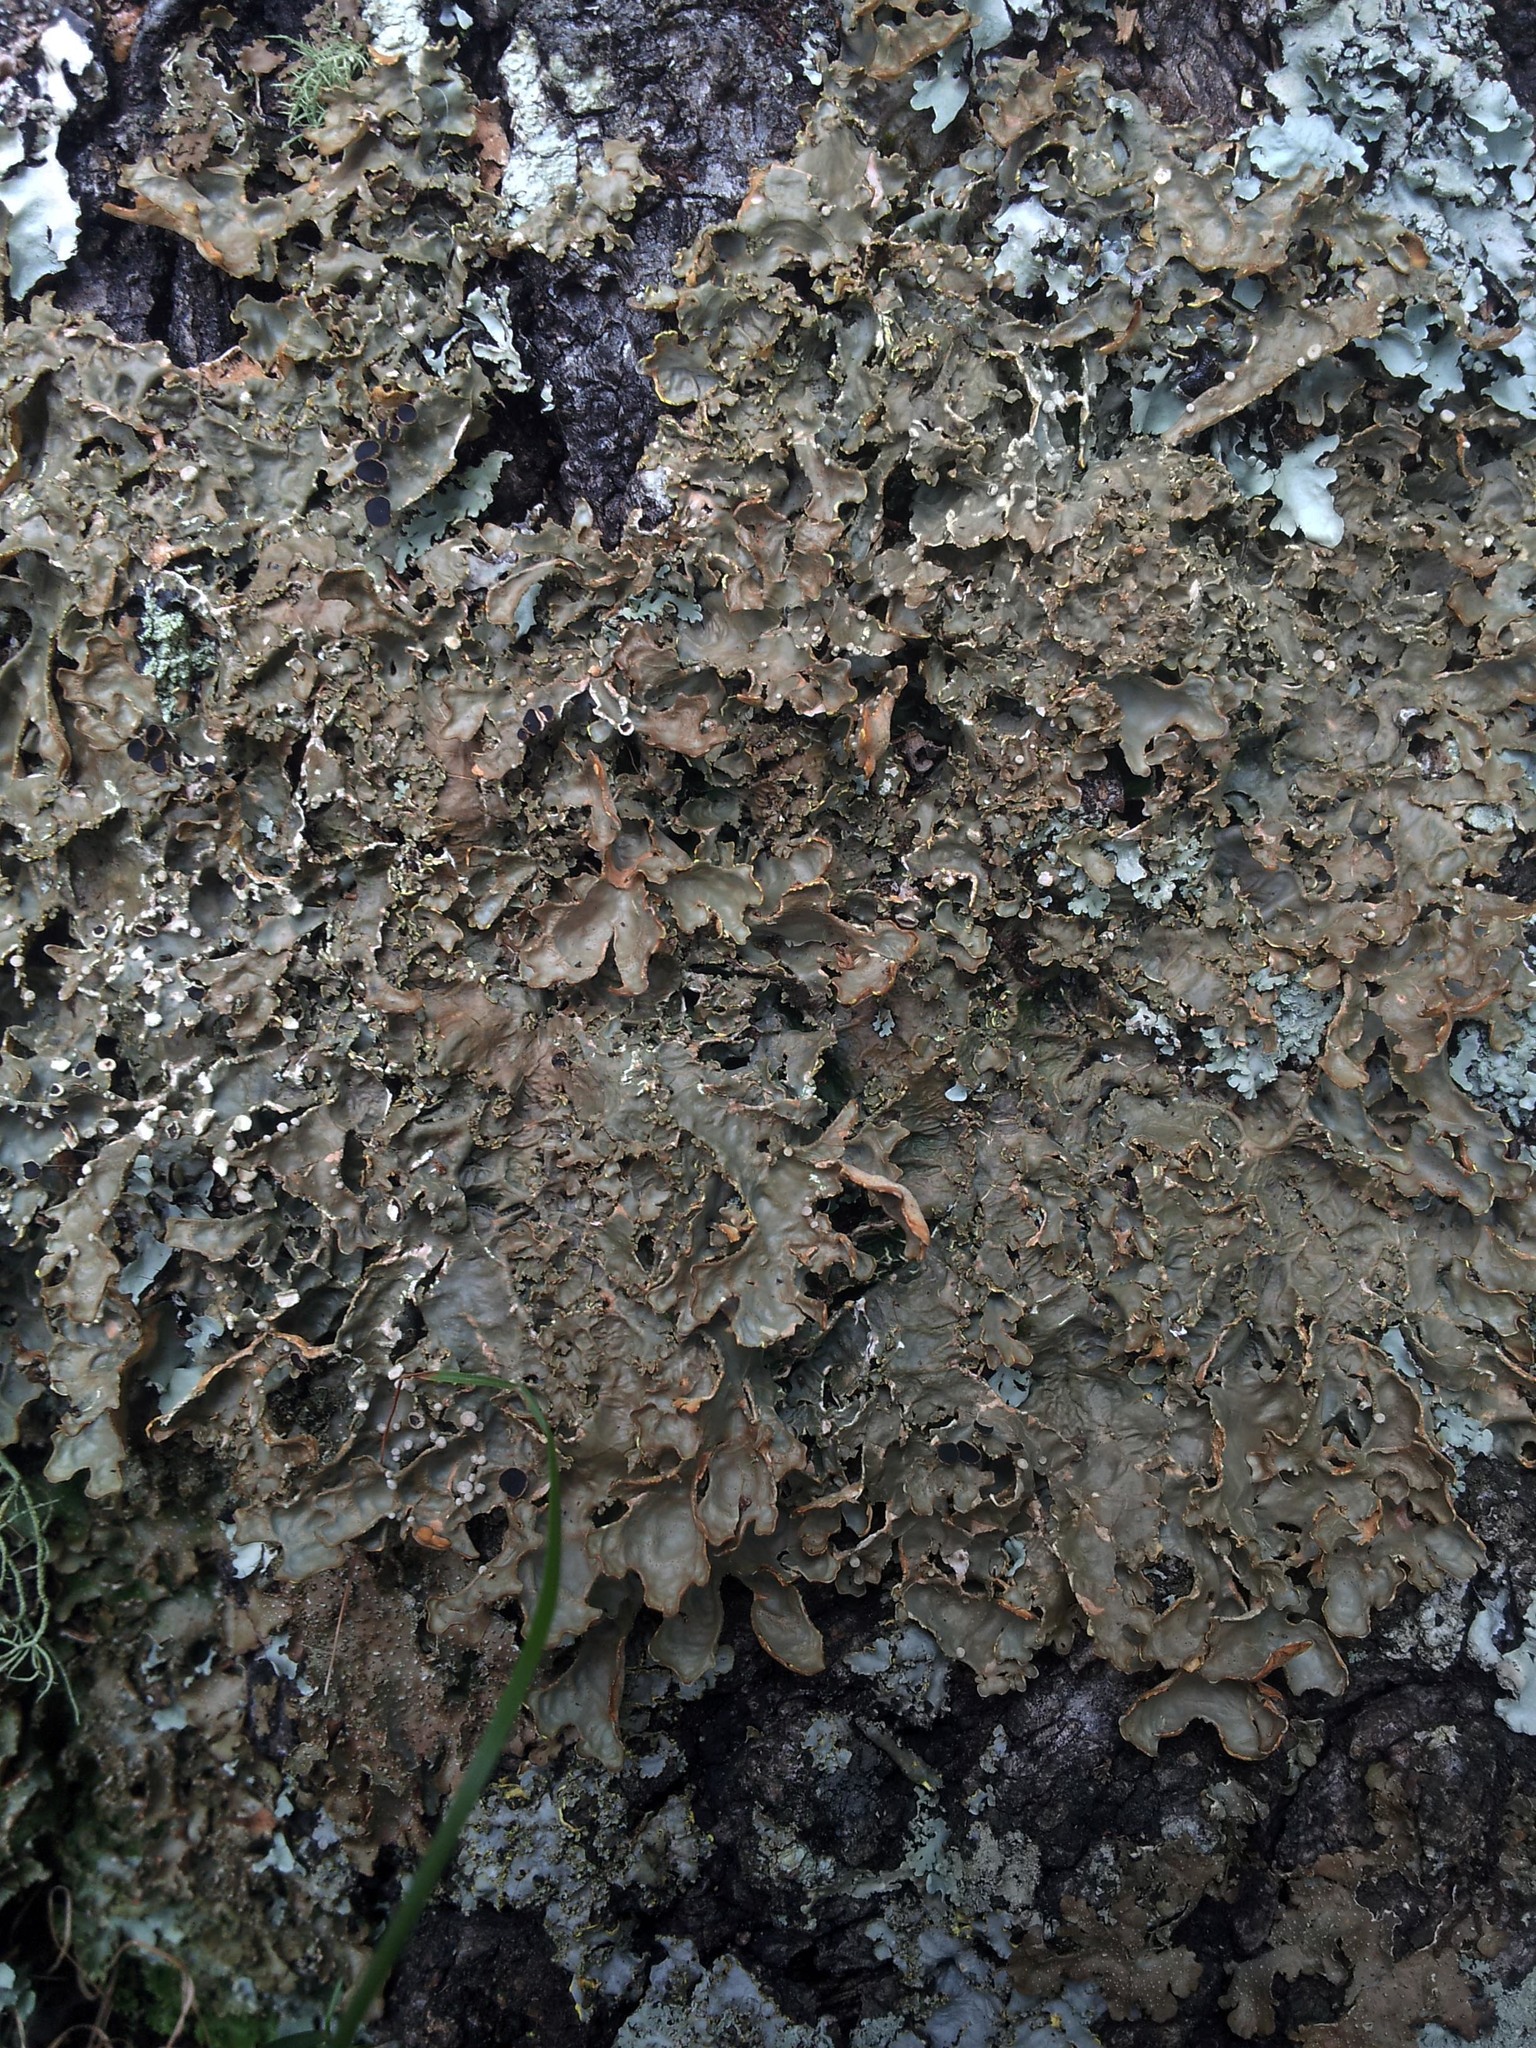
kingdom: Fungi
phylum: Ascomycota
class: Lecanoromycetes
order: Peltigerales
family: Lobariaceae
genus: Pseudocyphellaria
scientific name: Pseudocyphellaria carpoloma
